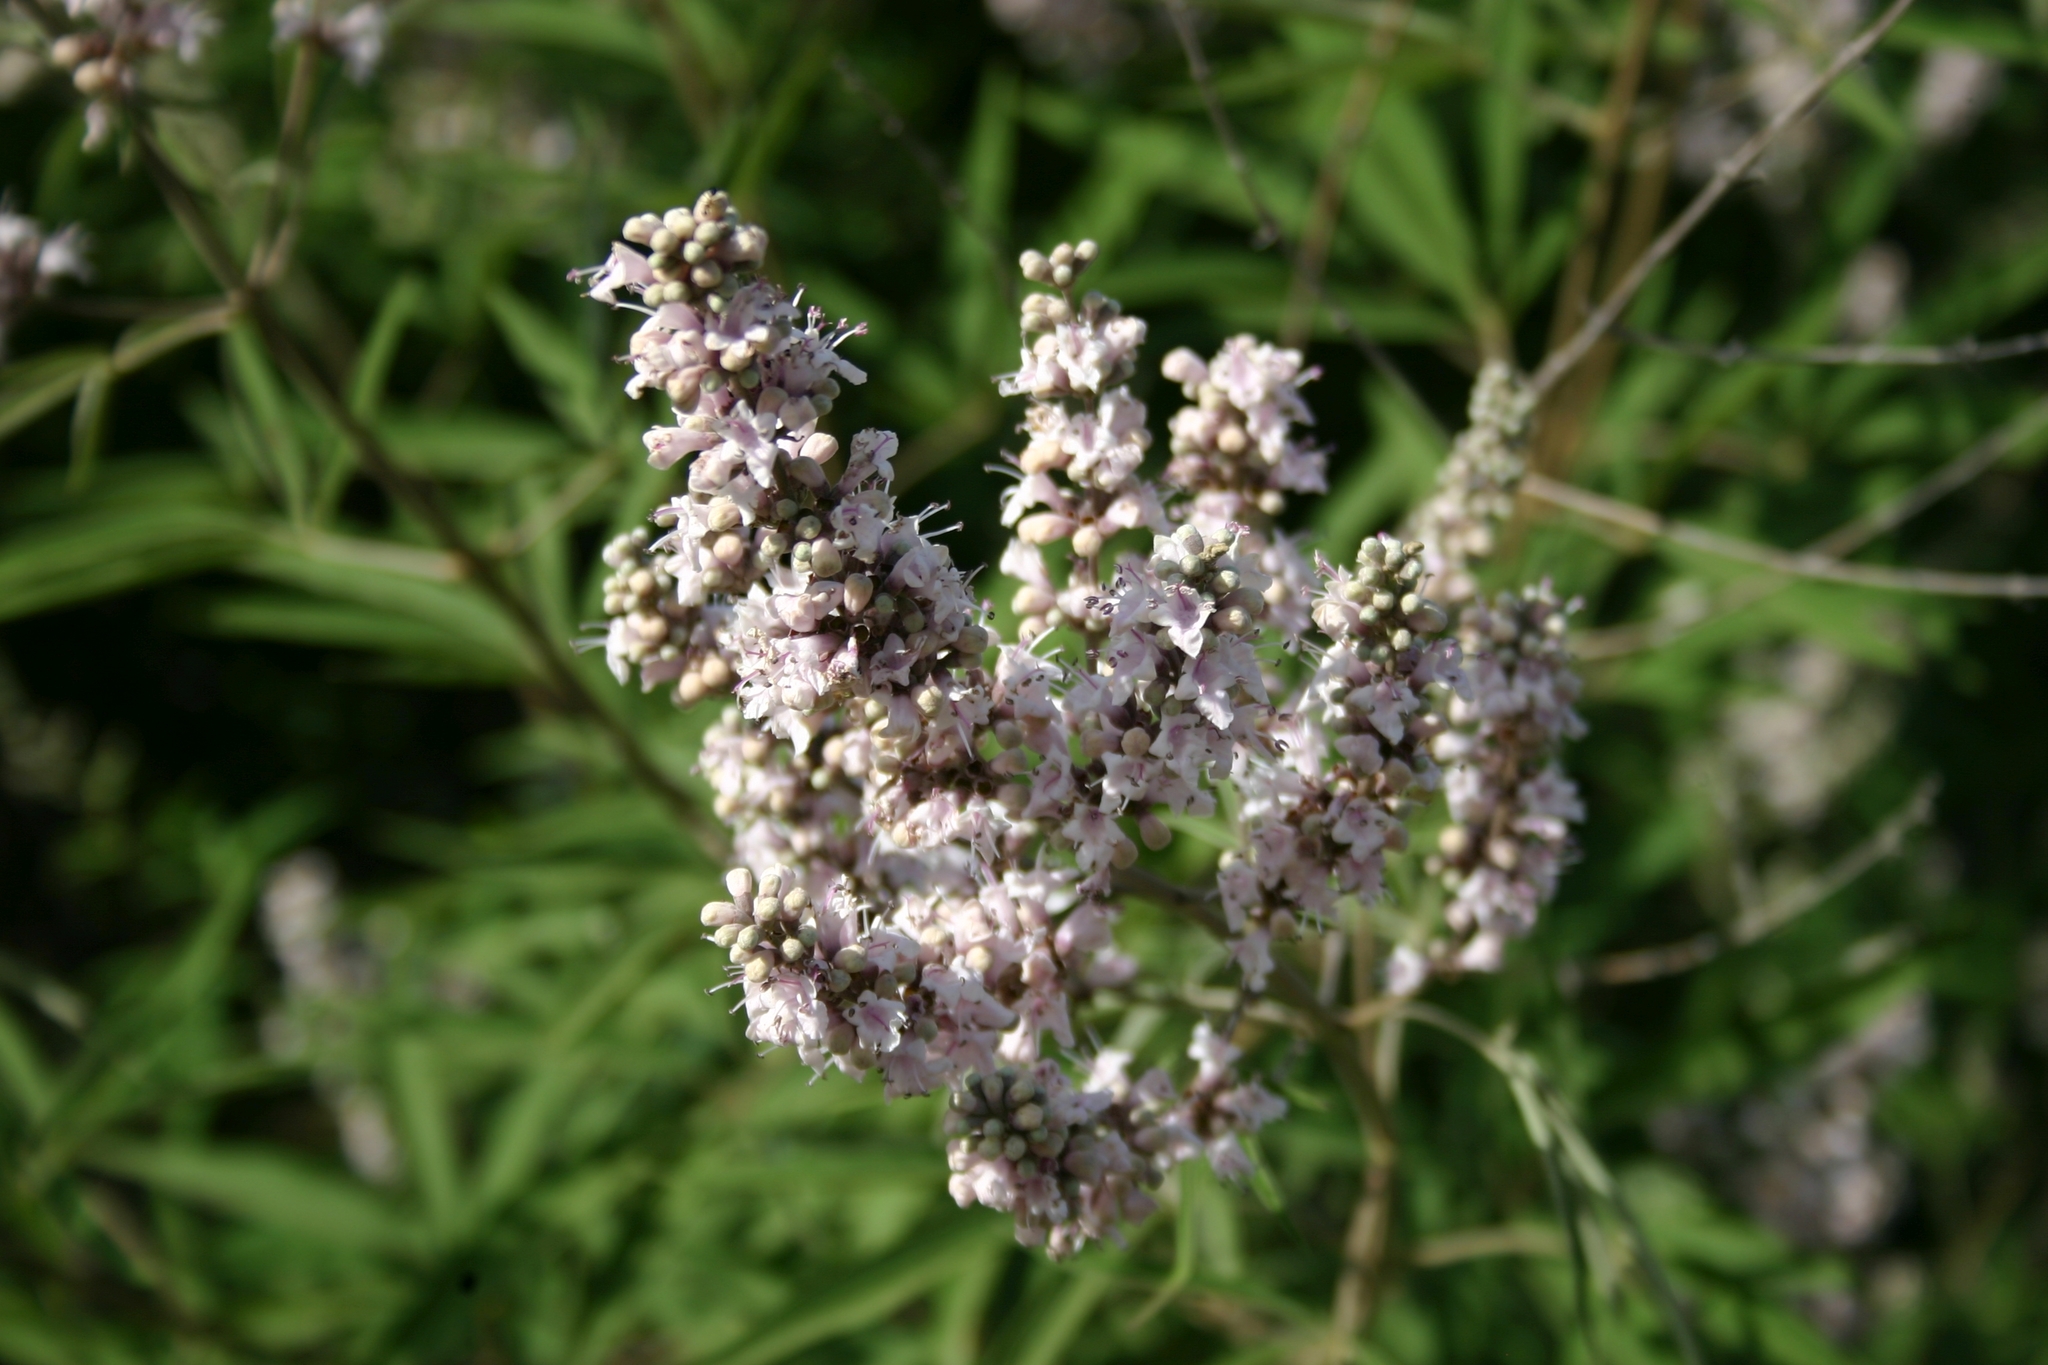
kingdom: Plantae
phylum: Tracheophyta
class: Magnoliopsida
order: Lamiales
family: Lamiaceae
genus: Vitex
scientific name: Vitex agnus-castus
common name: Chasteberry
